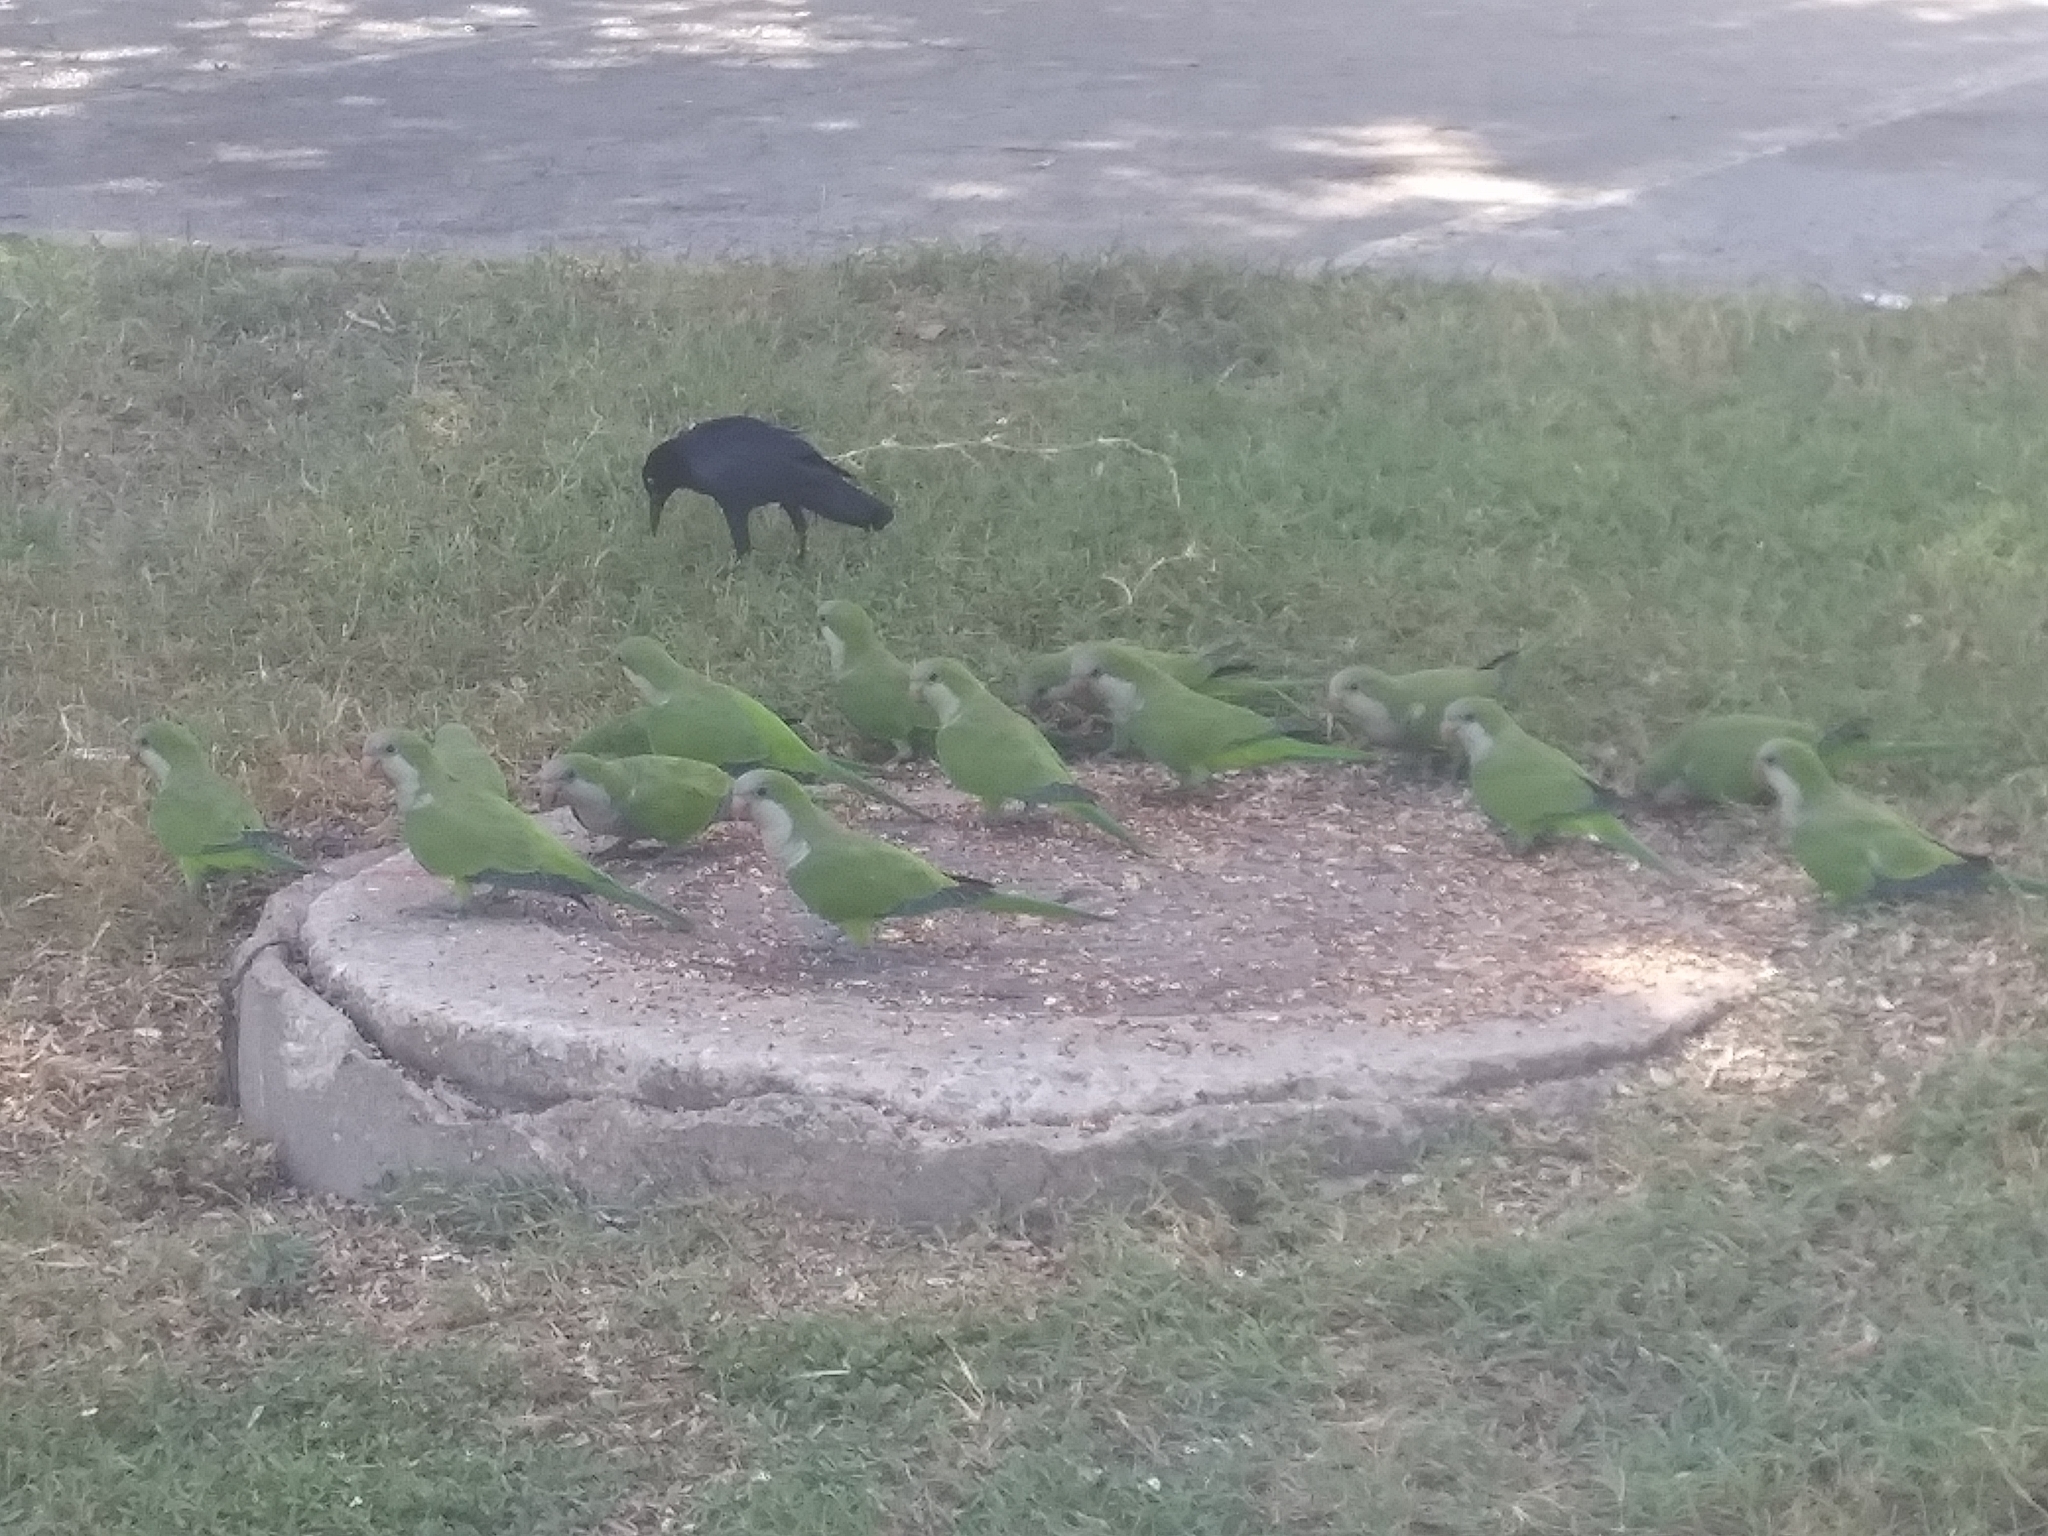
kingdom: Animalia
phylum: Chordata
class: Aves
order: Psittaciformes
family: Psittacidae
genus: Myiopsitta
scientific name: Myiopsitta monachus
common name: Monk parakeet
